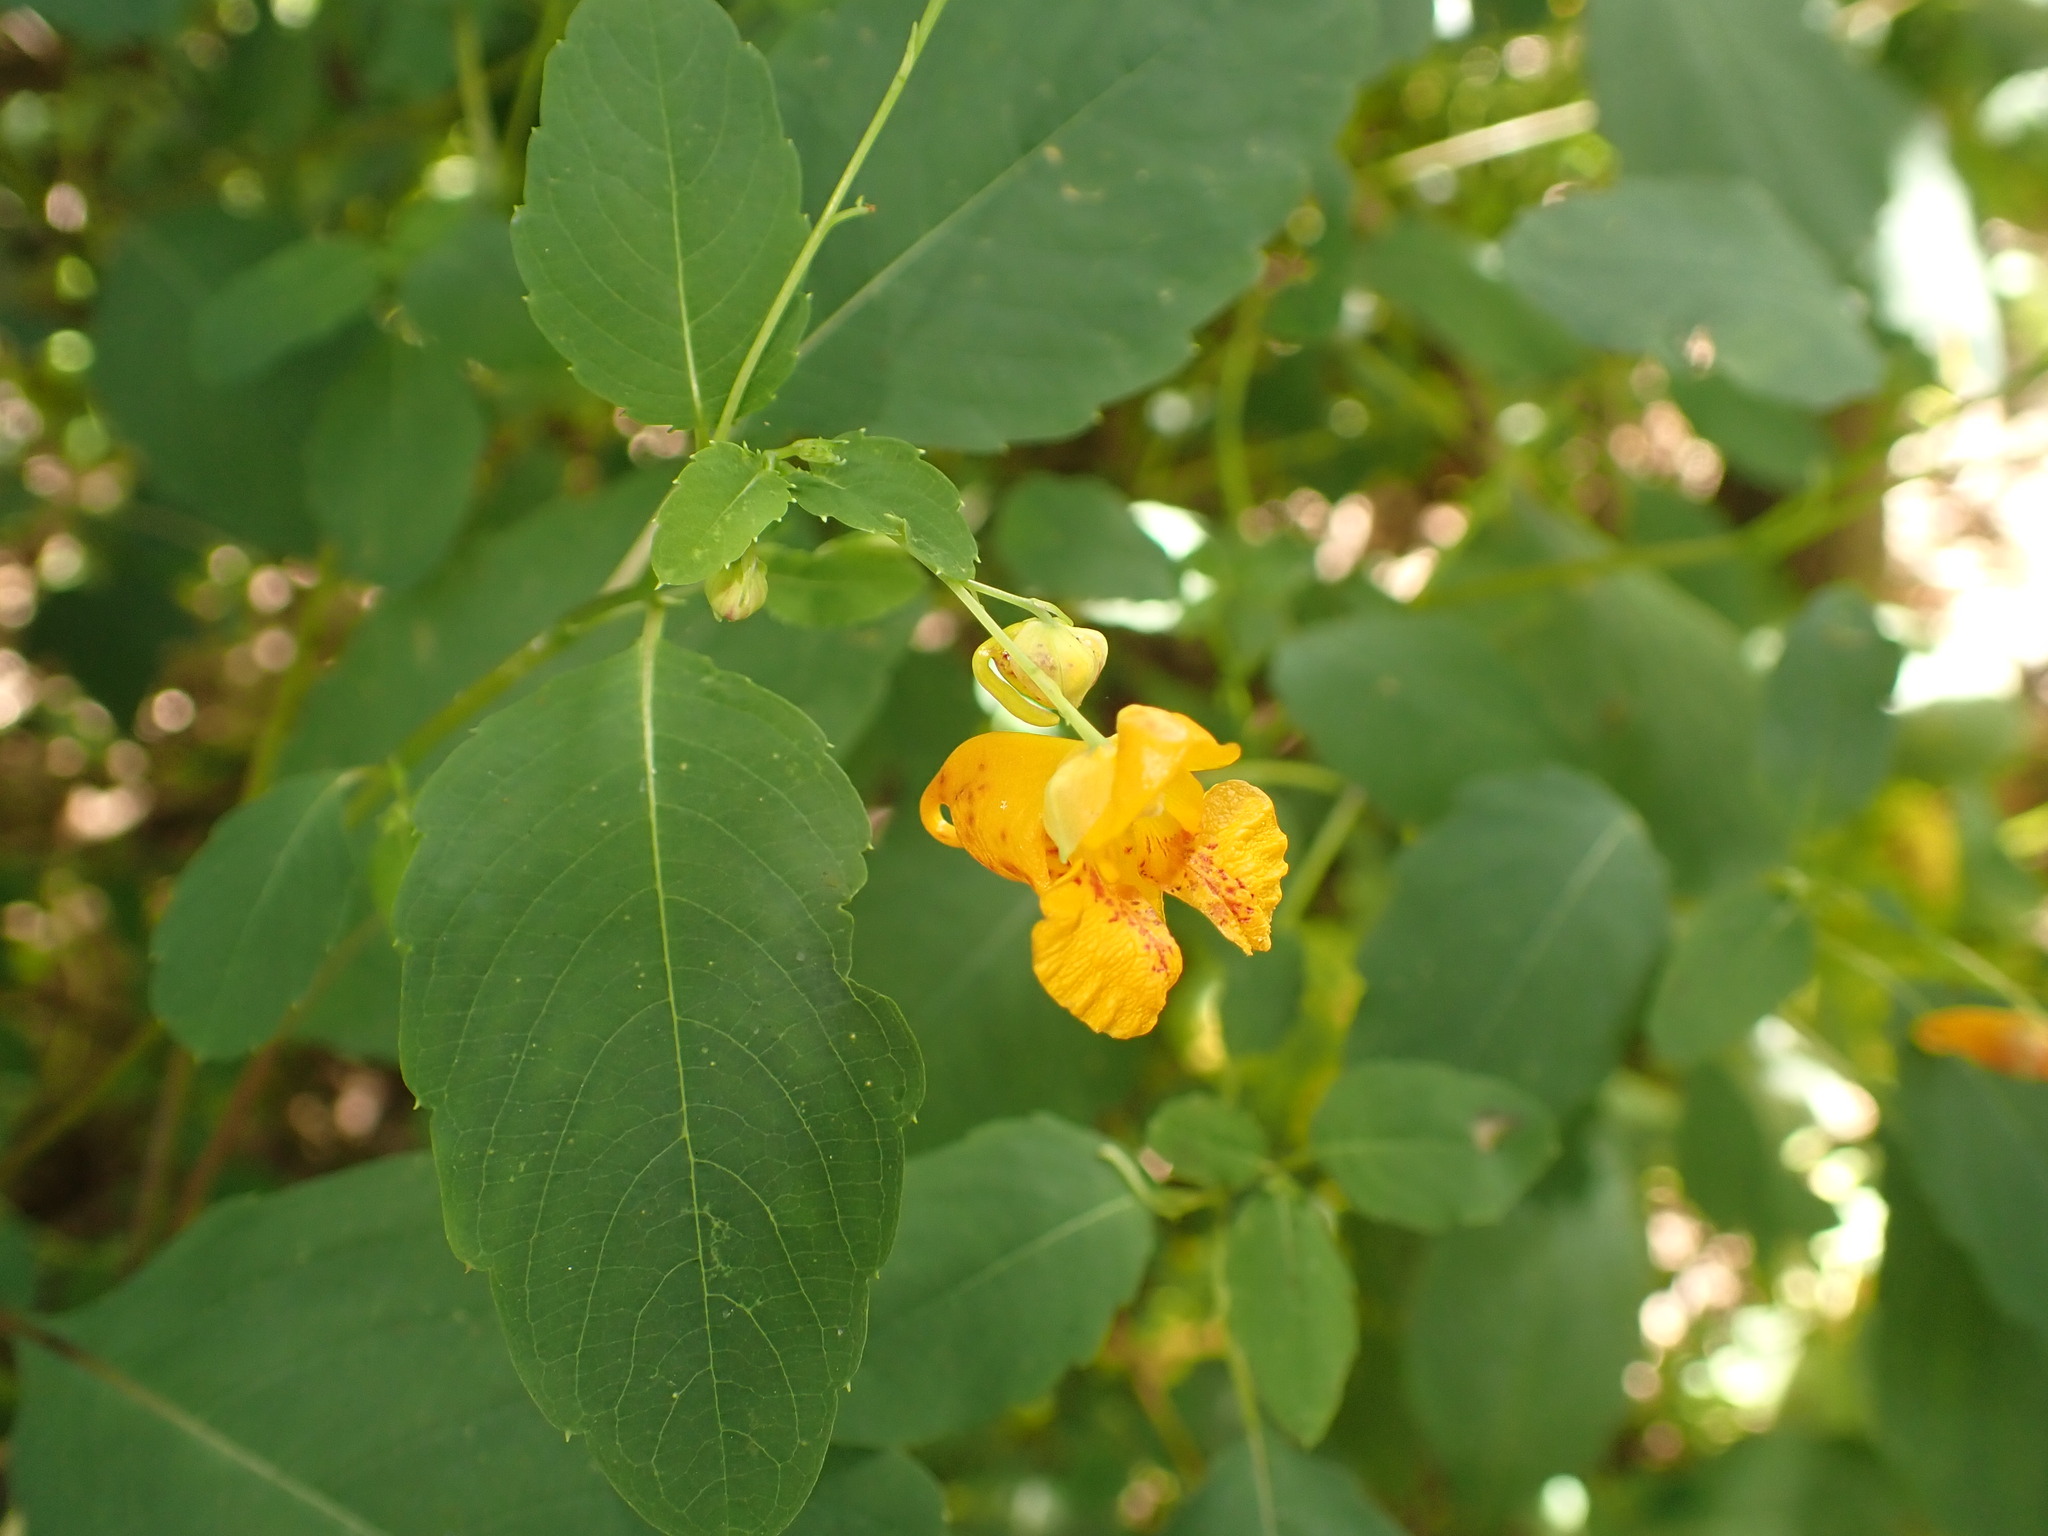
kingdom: Plantae
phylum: Tracheophyta
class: Magnoliopsida
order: Ericales
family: Balsaminaceae
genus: Impatiens
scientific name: Impatiens capensis
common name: Orange balsam
